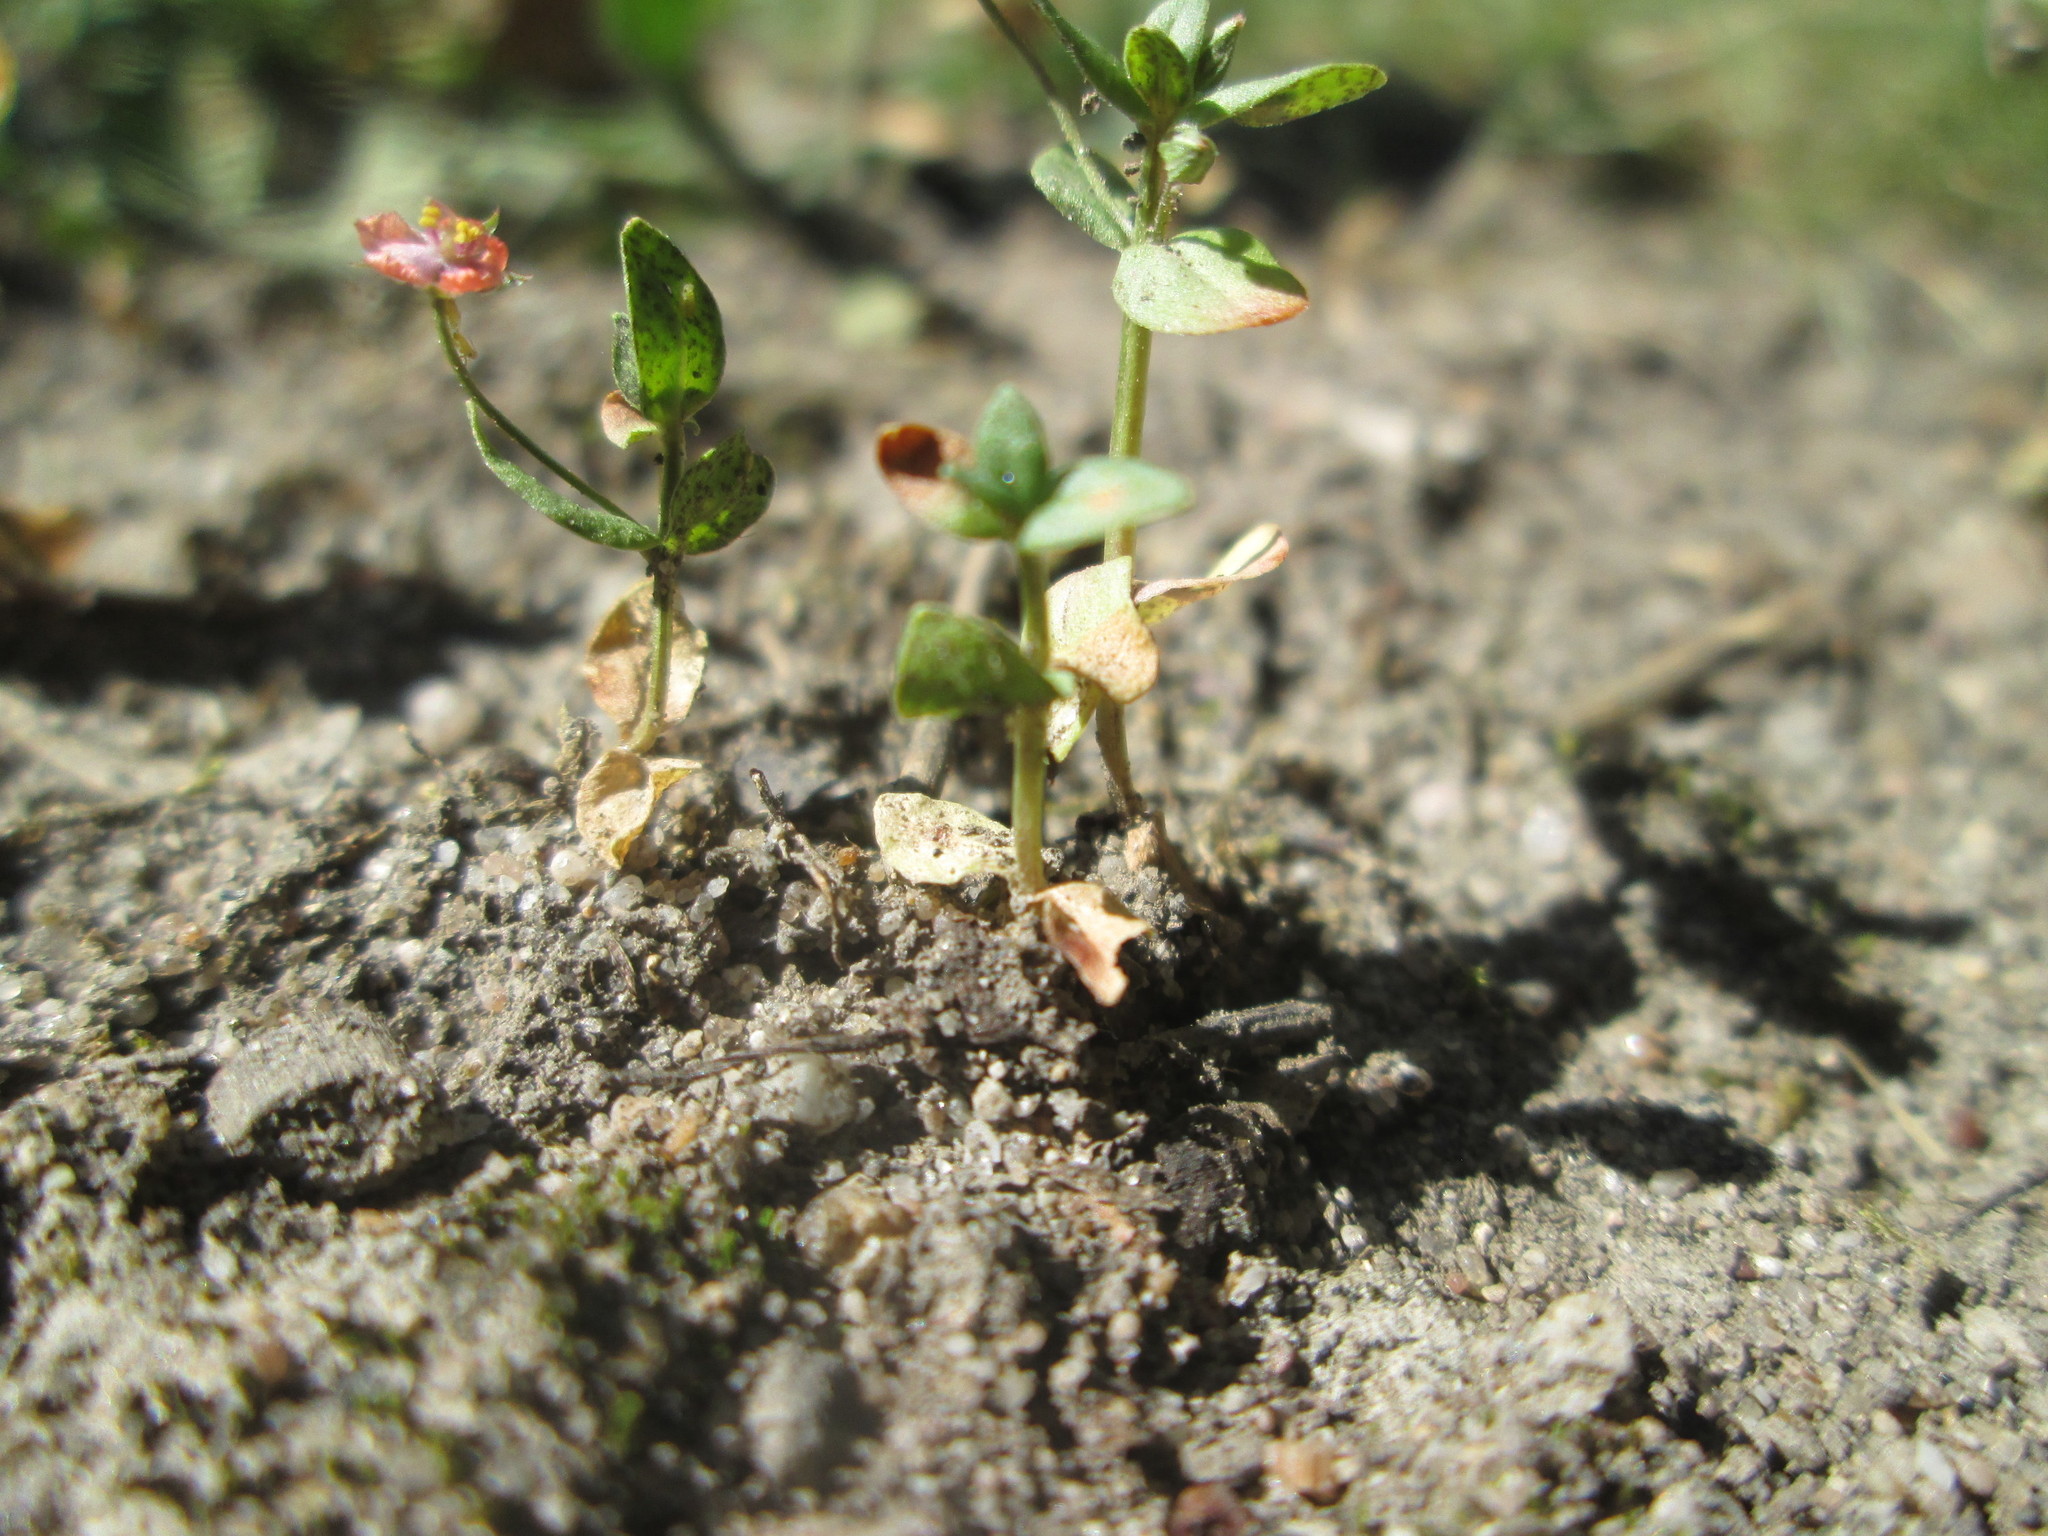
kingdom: Plantae
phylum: Tracheophyta
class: Magnoliopsida
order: Ericales
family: Primulaceae
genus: Lysimachia
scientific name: Lysimachia arvensis
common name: Scarlet pimpernel
